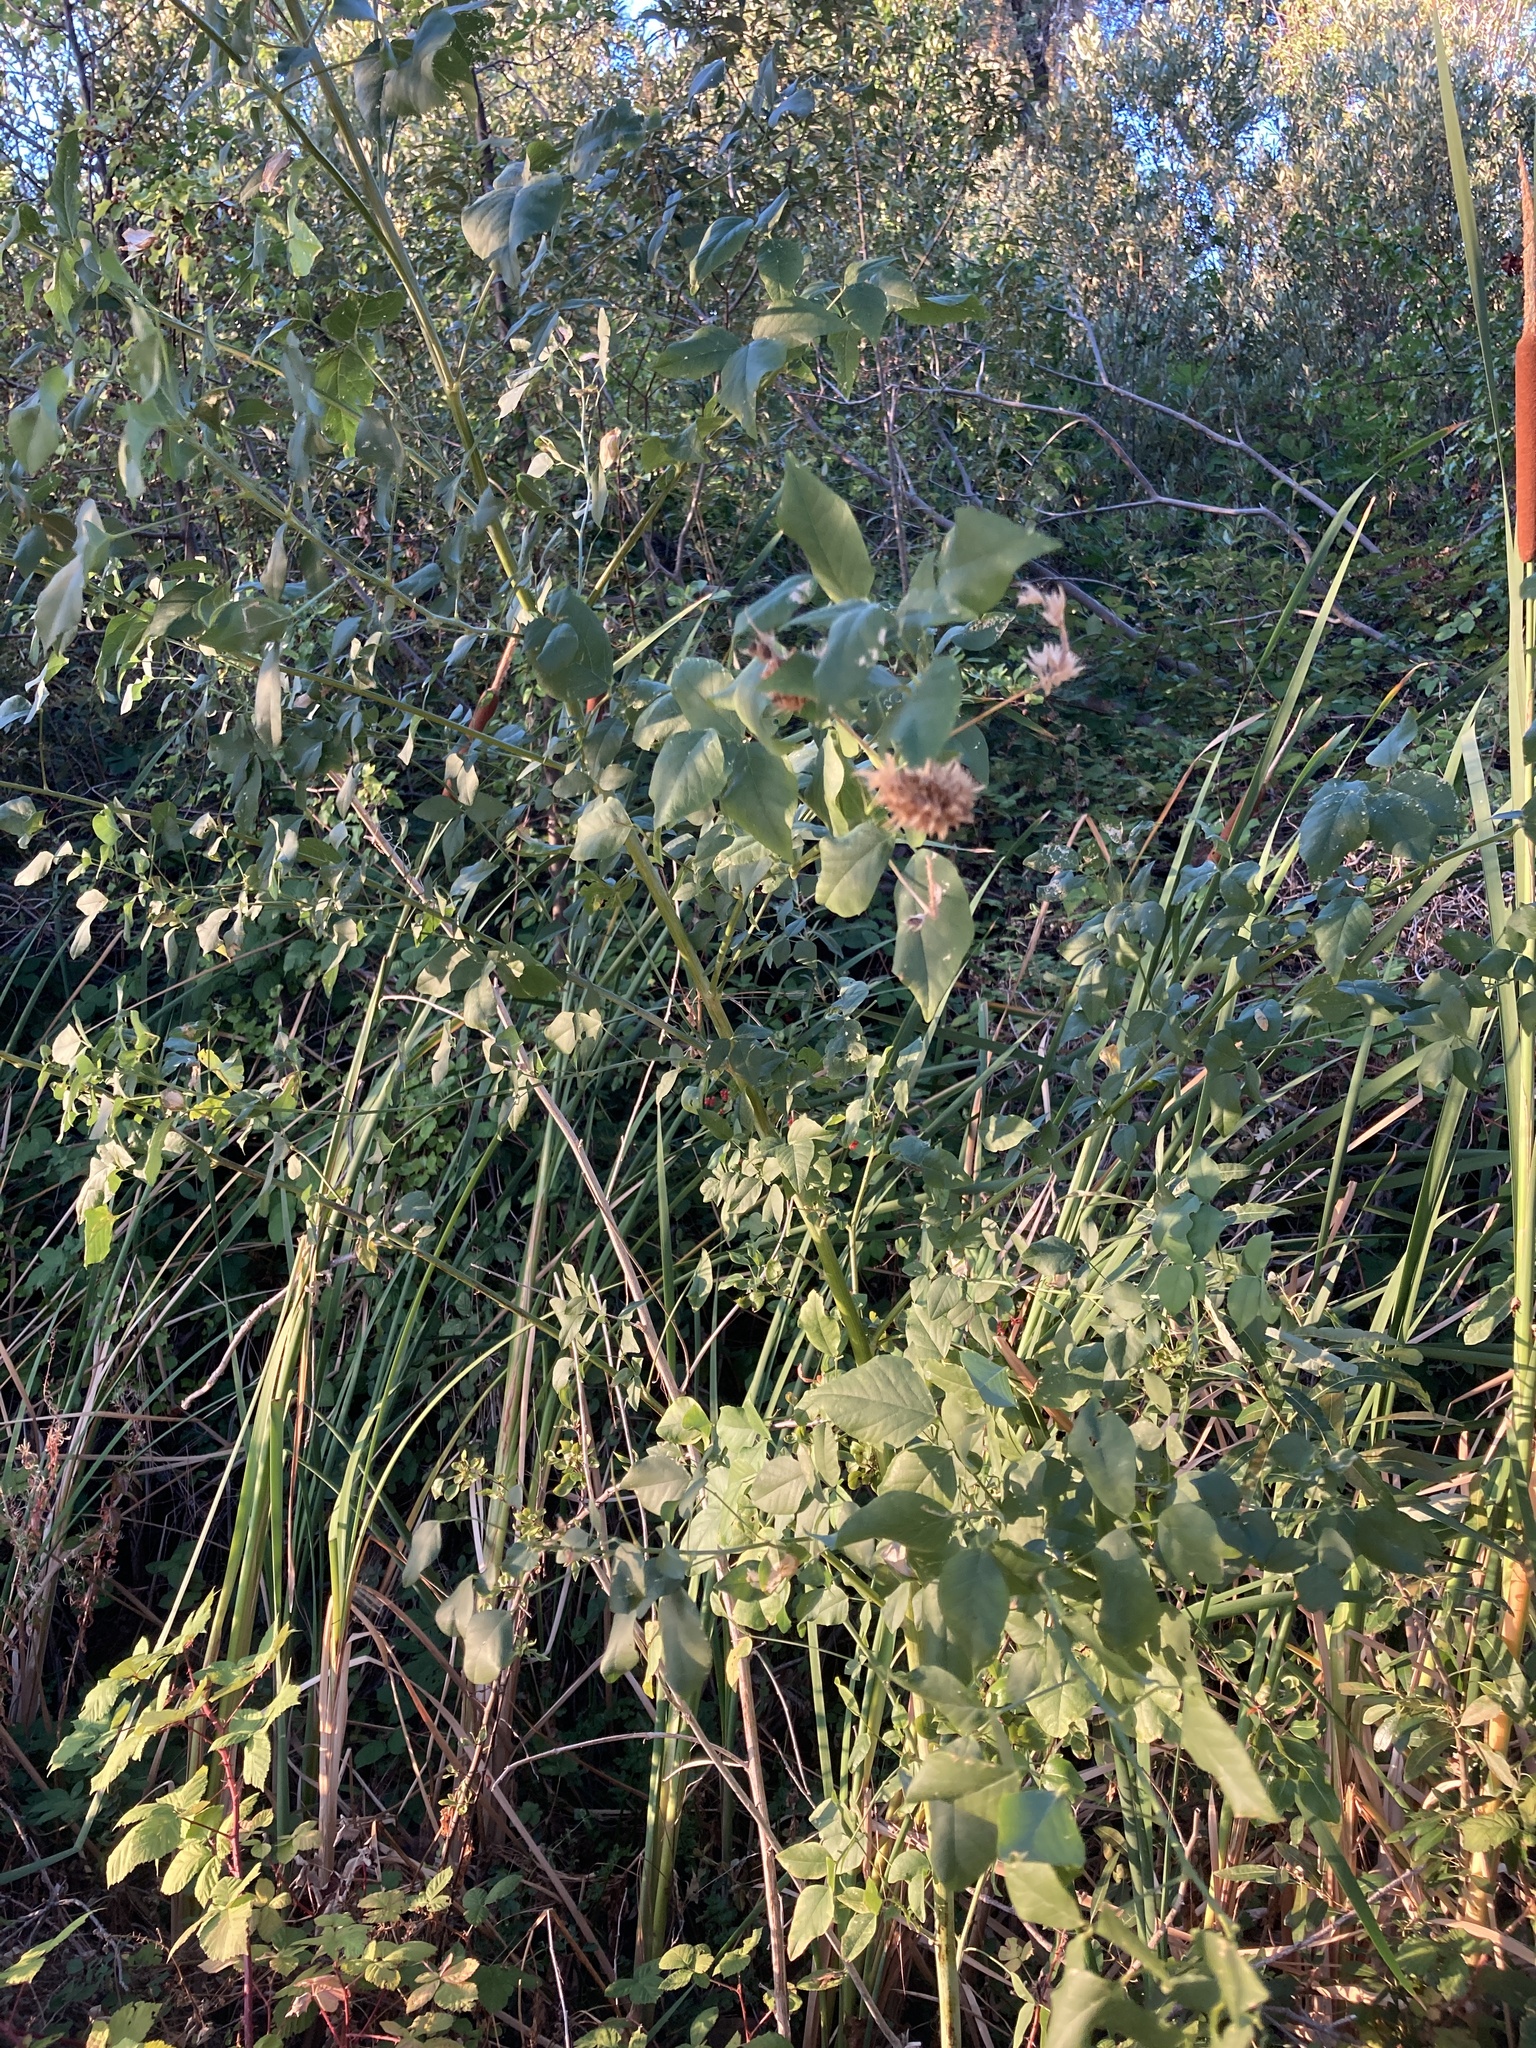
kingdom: Plantae
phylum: Tracheophyta
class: Magnoliopsida
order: Fabales
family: Fabaceae
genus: Hoita
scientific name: Hoita macrostachya
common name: Leatherroot
